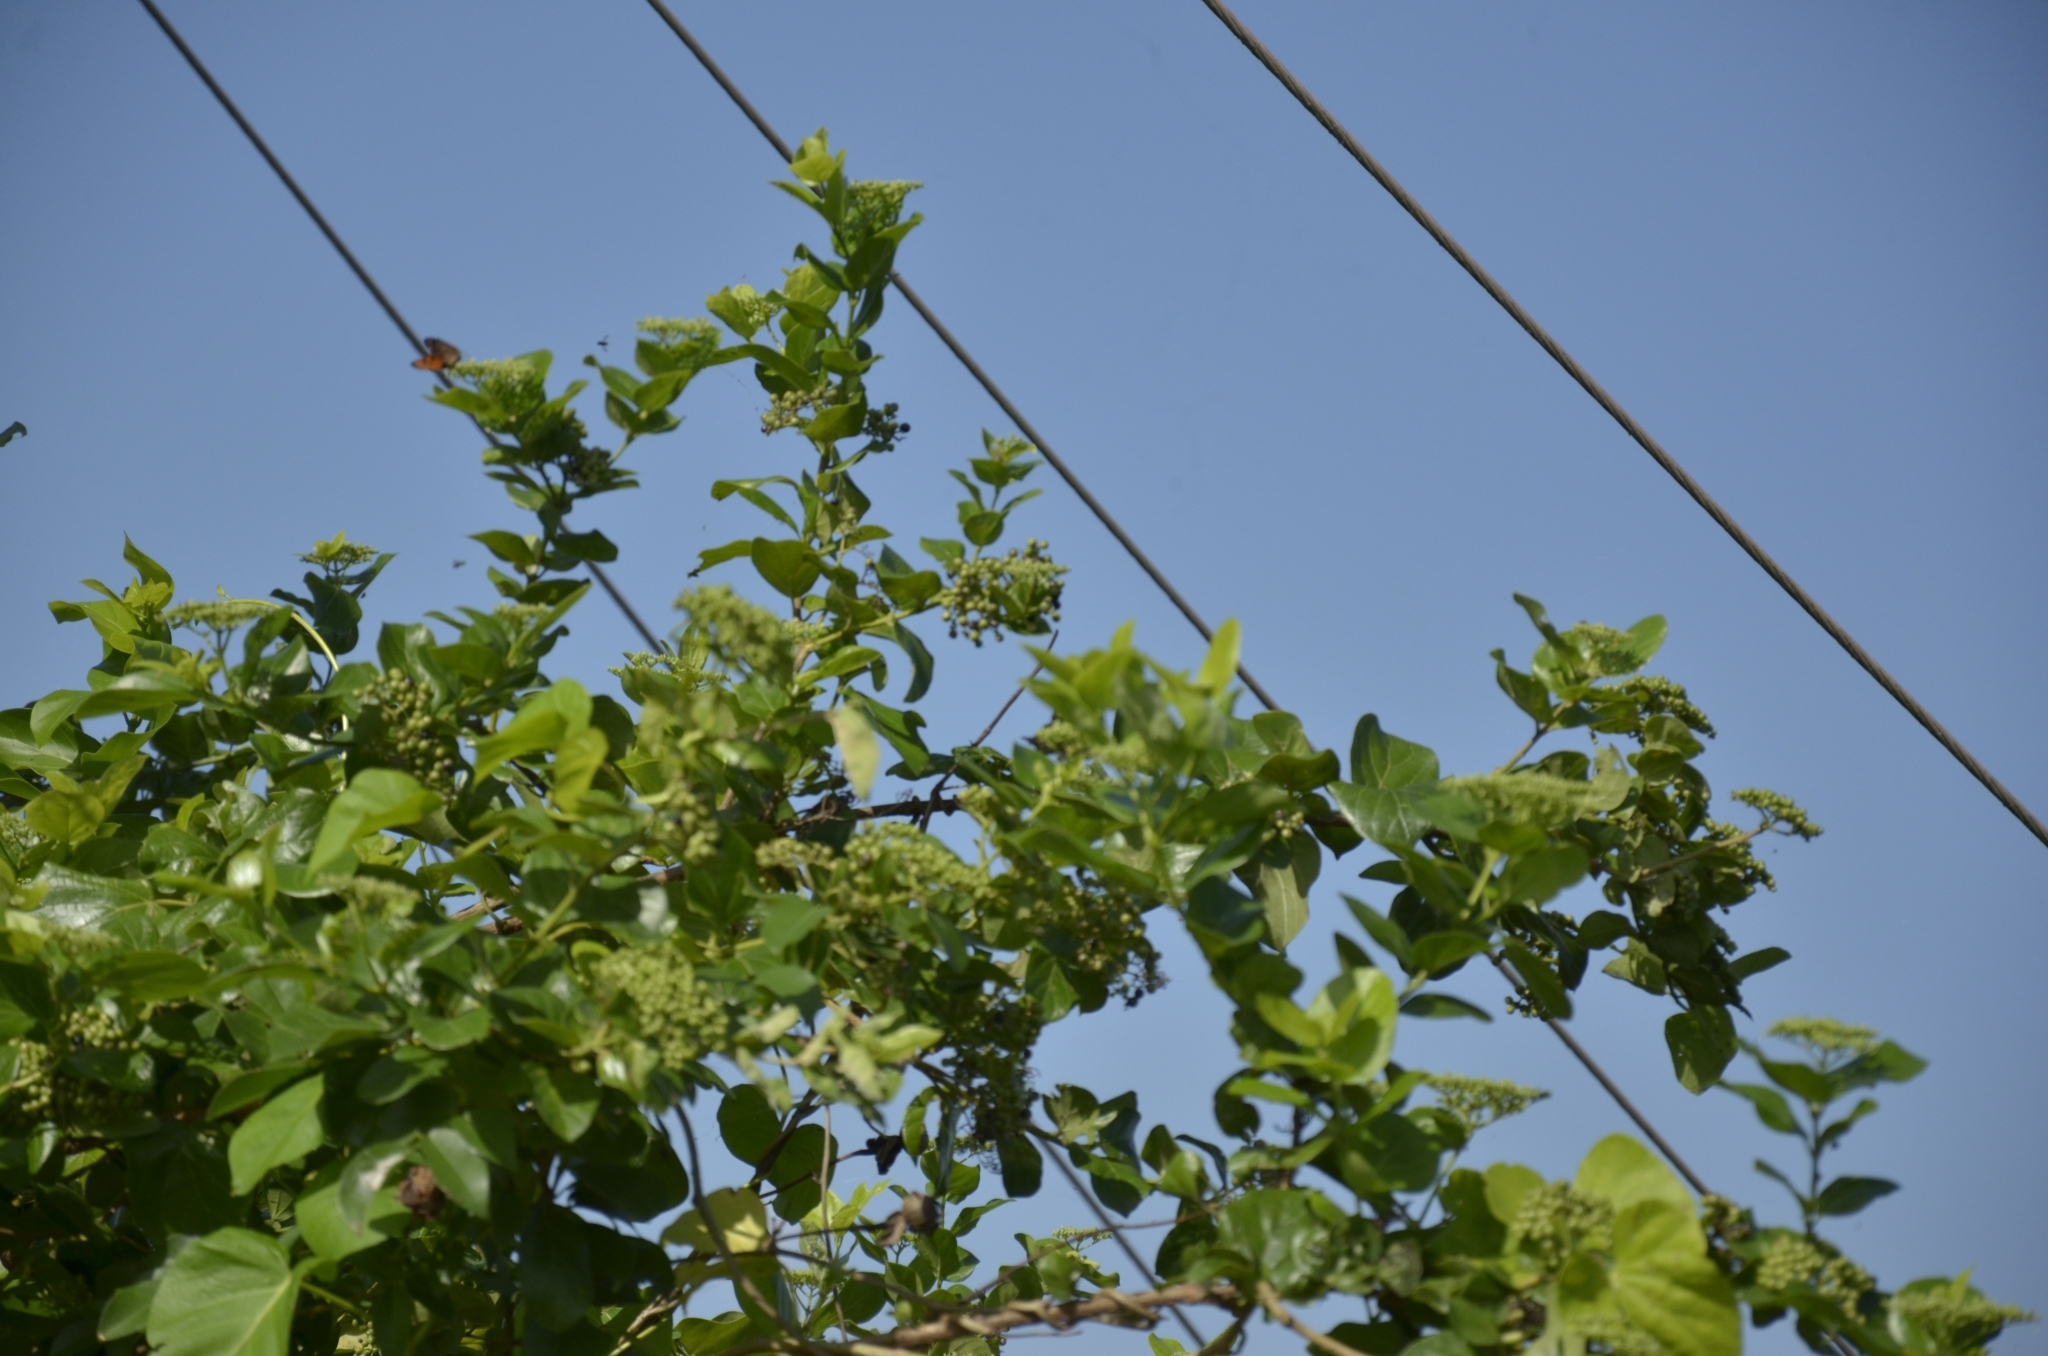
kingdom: Plantae
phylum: Tracheophyta
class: Magnoliopsida
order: Lamiales
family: Lamiaceae
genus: Premna
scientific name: Premna serratifolia
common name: Bastard guelder
